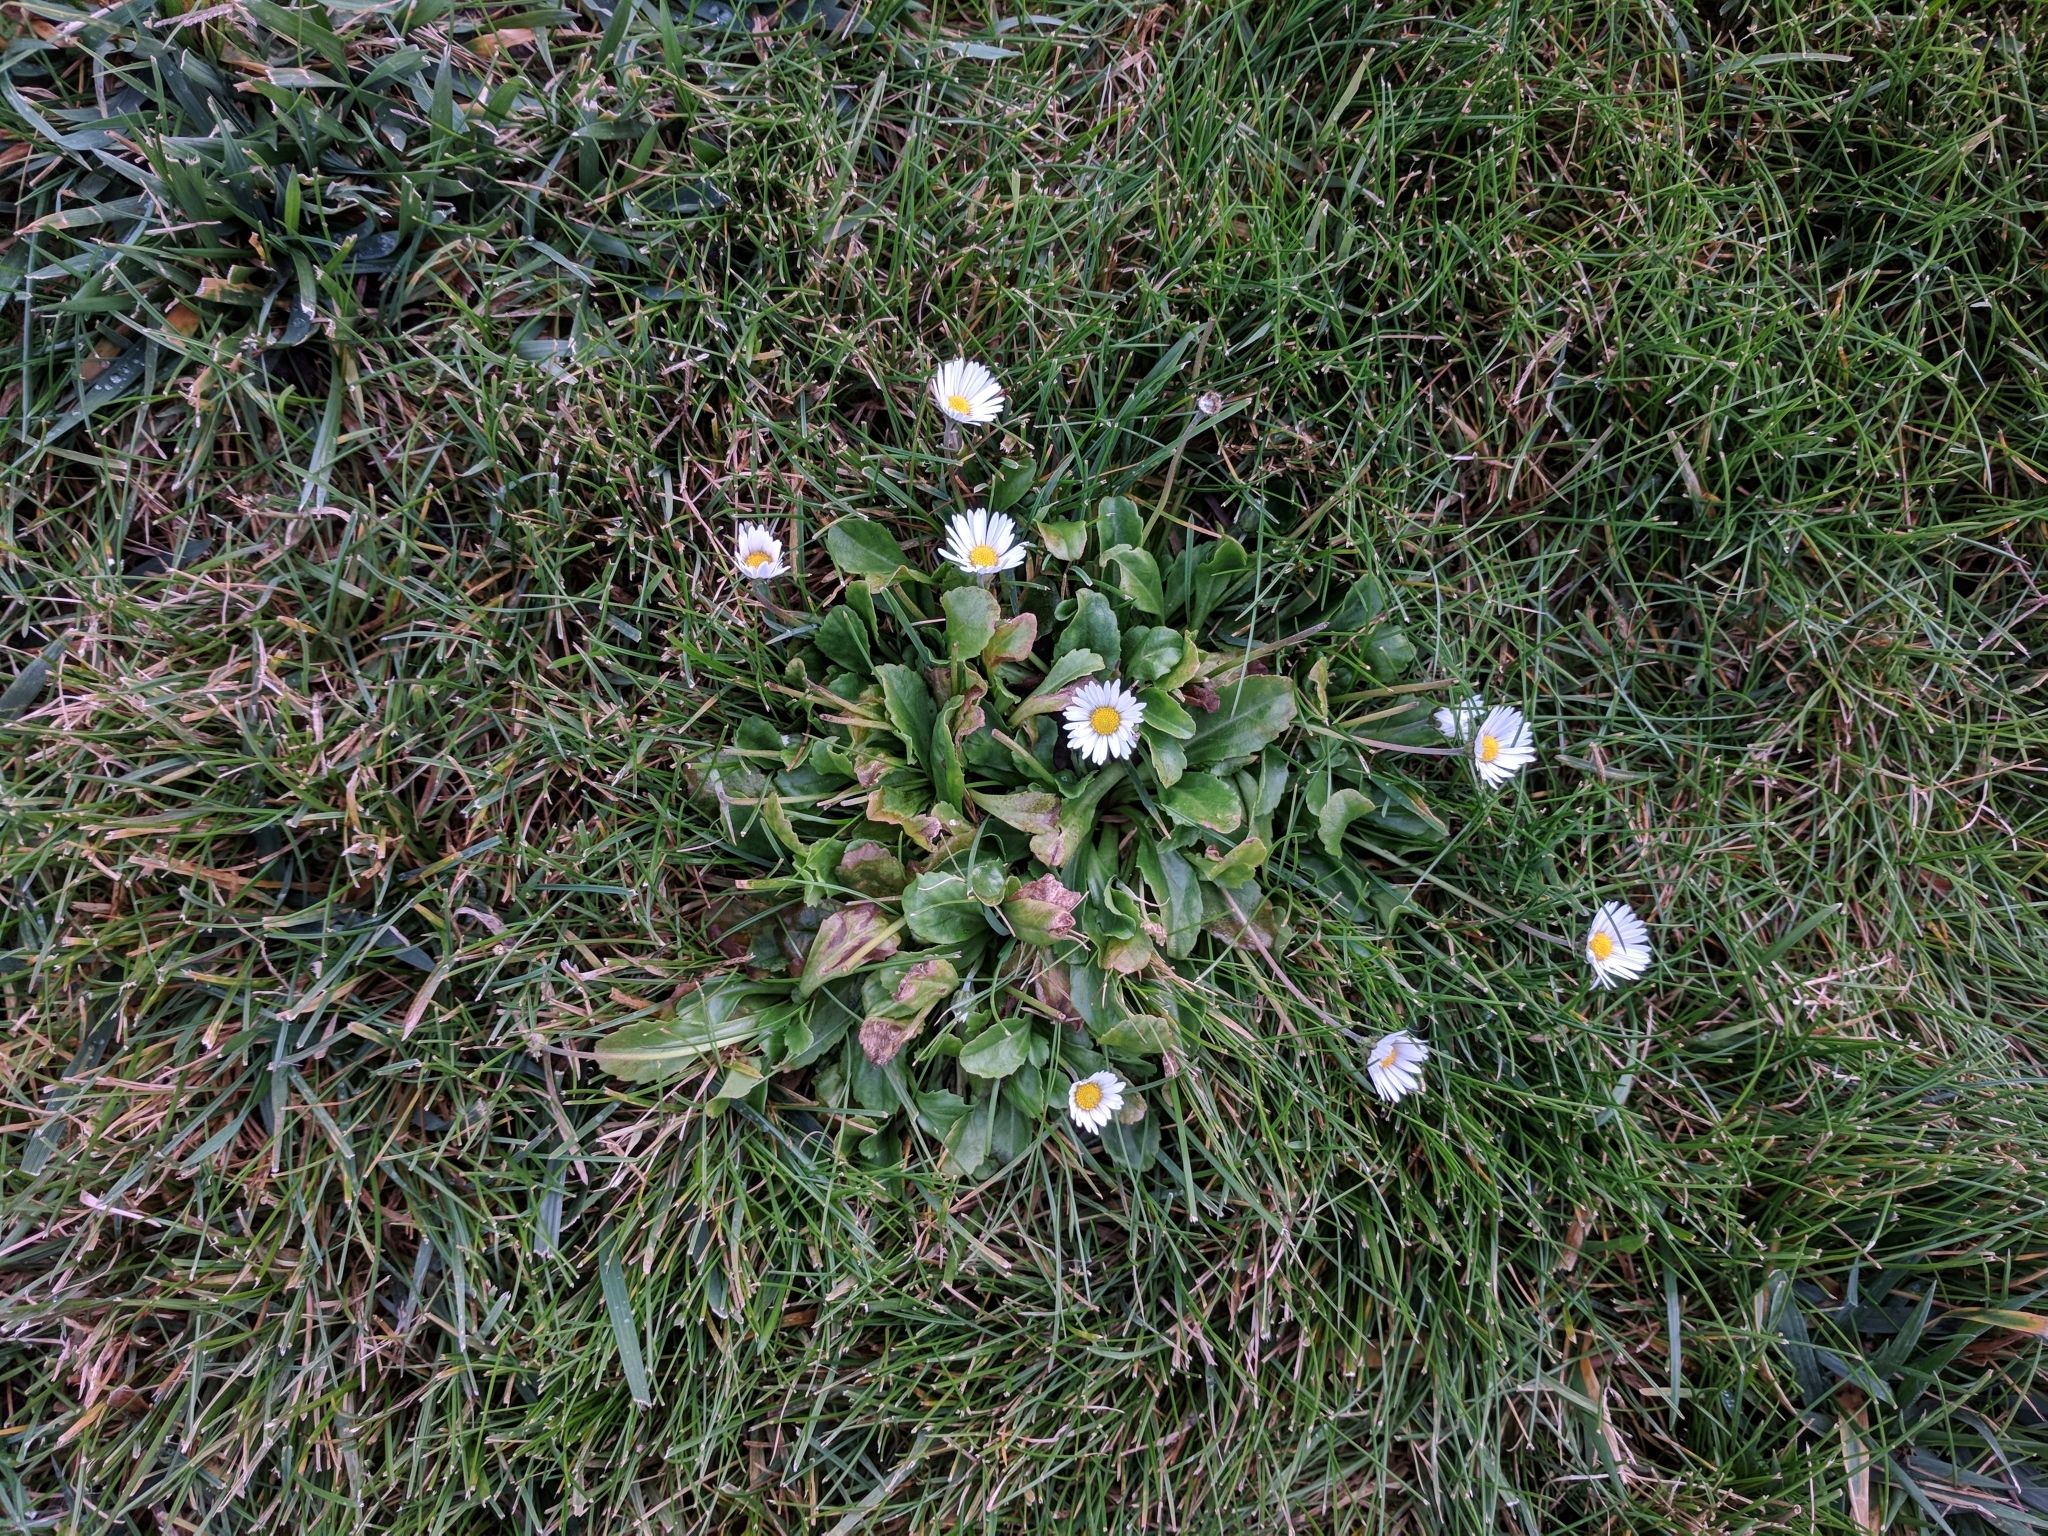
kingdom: Plantae
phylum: Tracheophyta
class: Magnoliopsida
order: Asterales
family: Asteraceae
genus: Bellis
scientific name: Bellis perennis
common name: Lawndaisy
